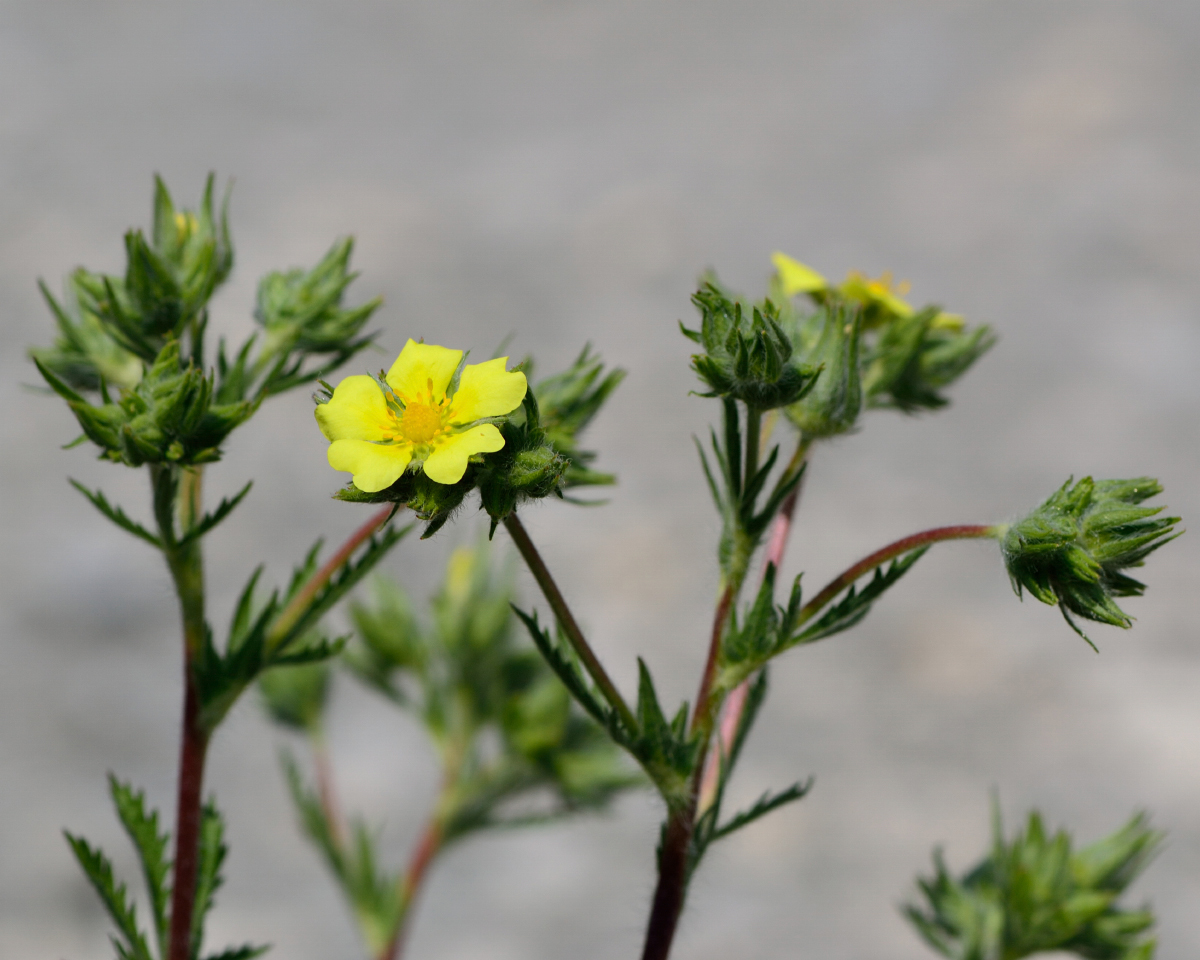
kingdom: Plantae
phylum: Tracheophyta
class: Magnoliopsida
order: Rosales
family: Rosaceae
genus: Potentilla
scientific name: Potentilla recta
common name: Sulphur cinquefoil
